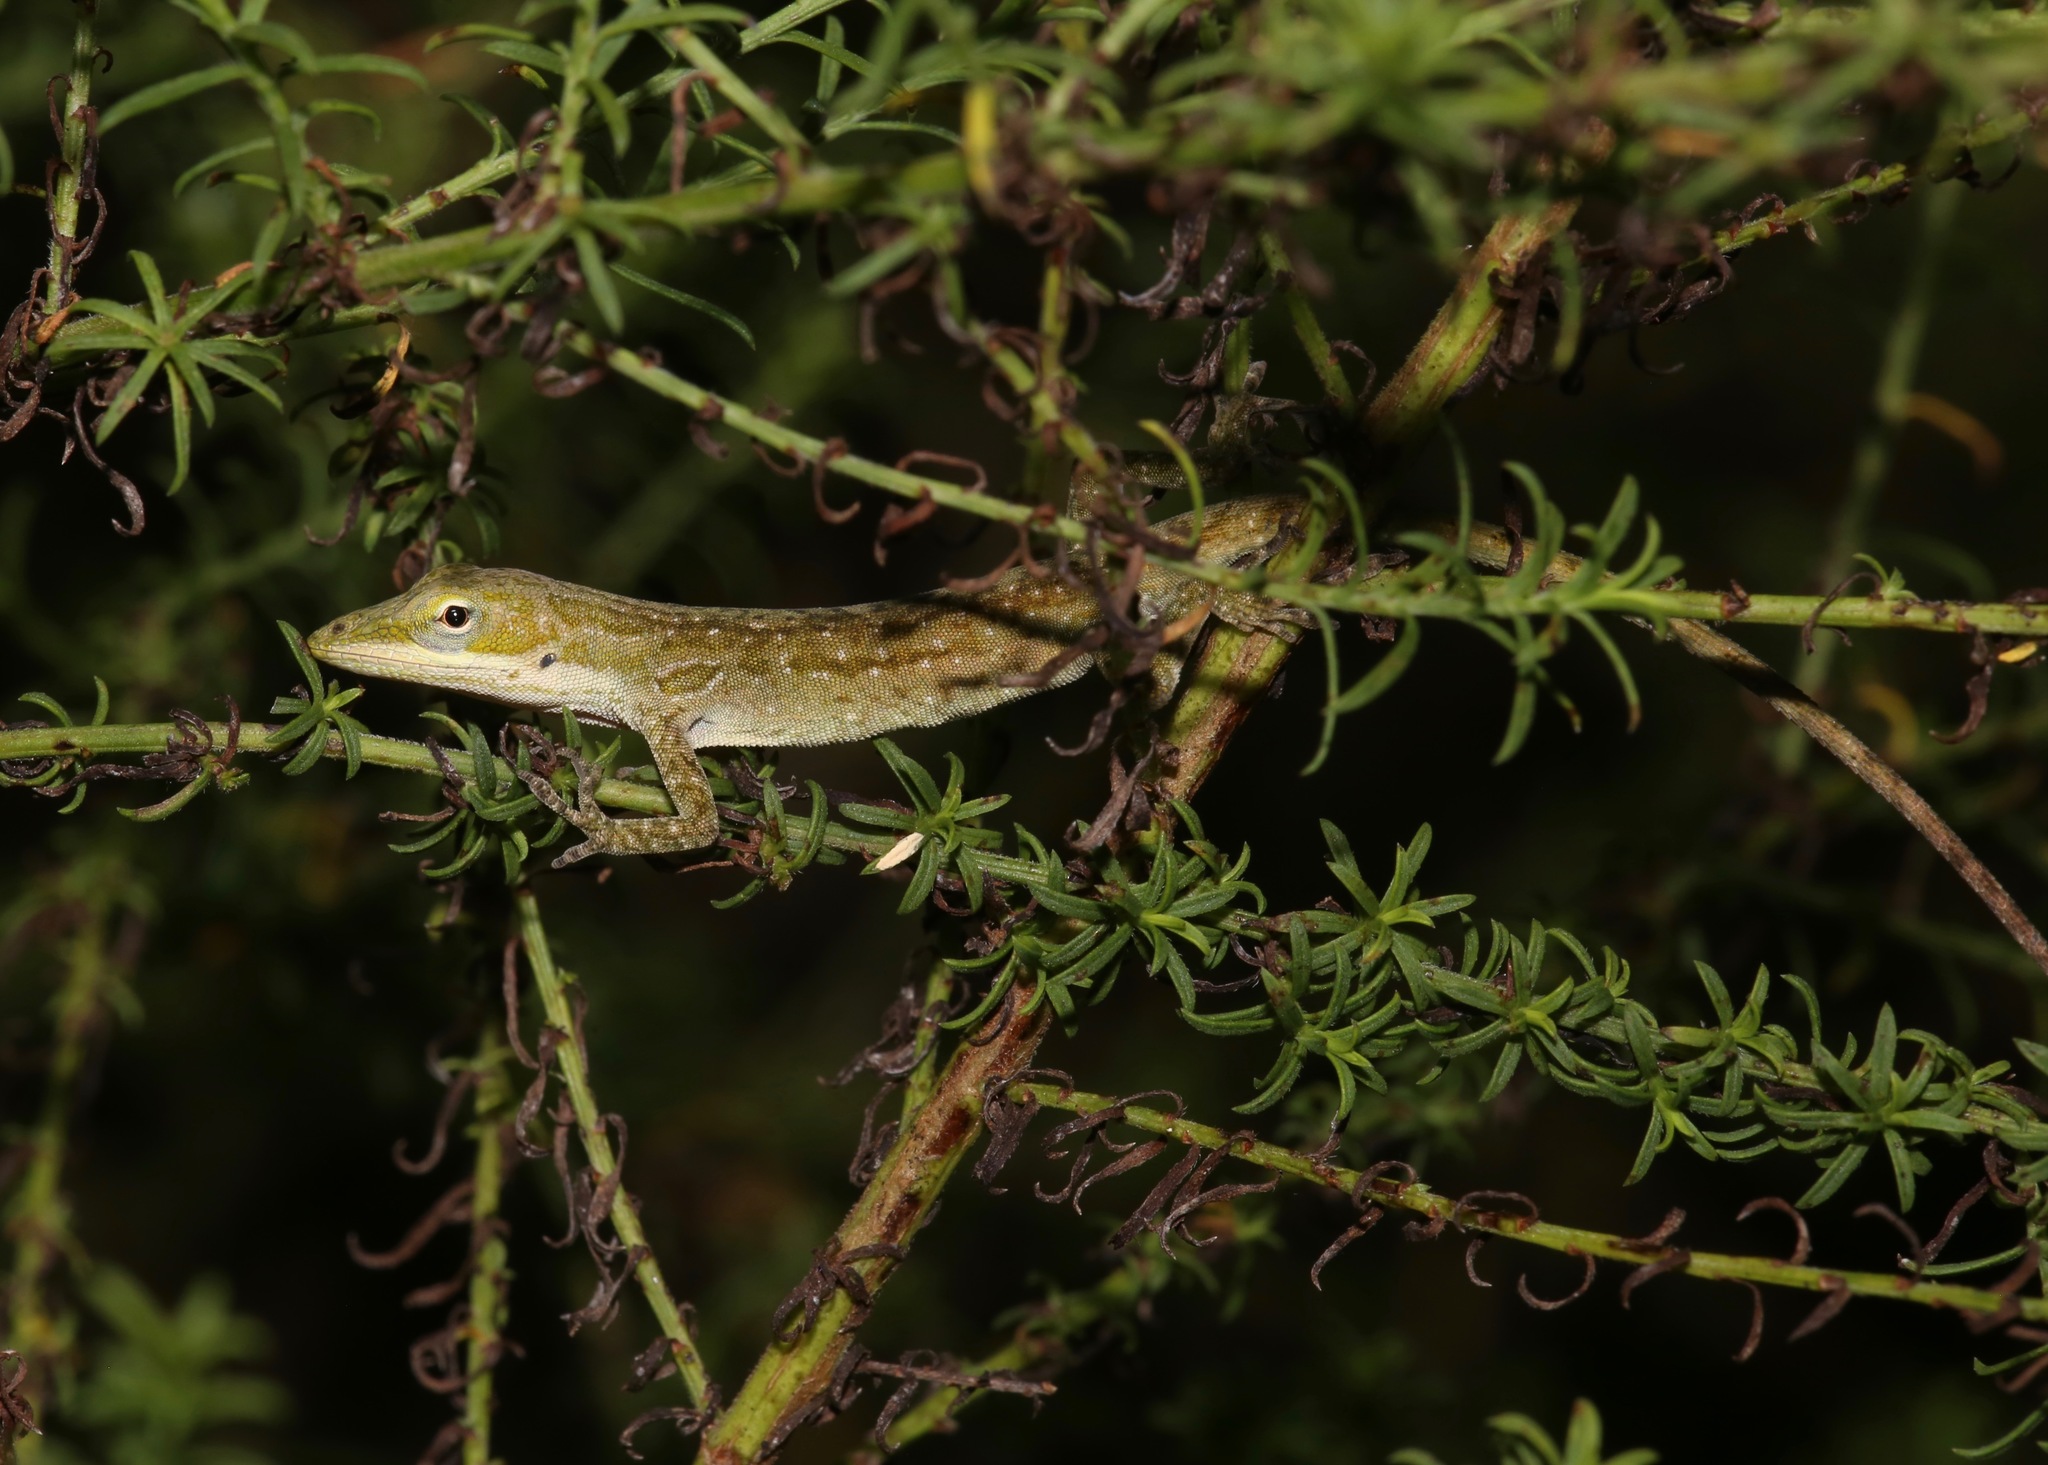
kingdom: Animalia
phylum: Chordata
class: Squamata
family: Dactyloidae
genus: Anolis
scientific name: Anolis carolinensis
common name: Green anole
